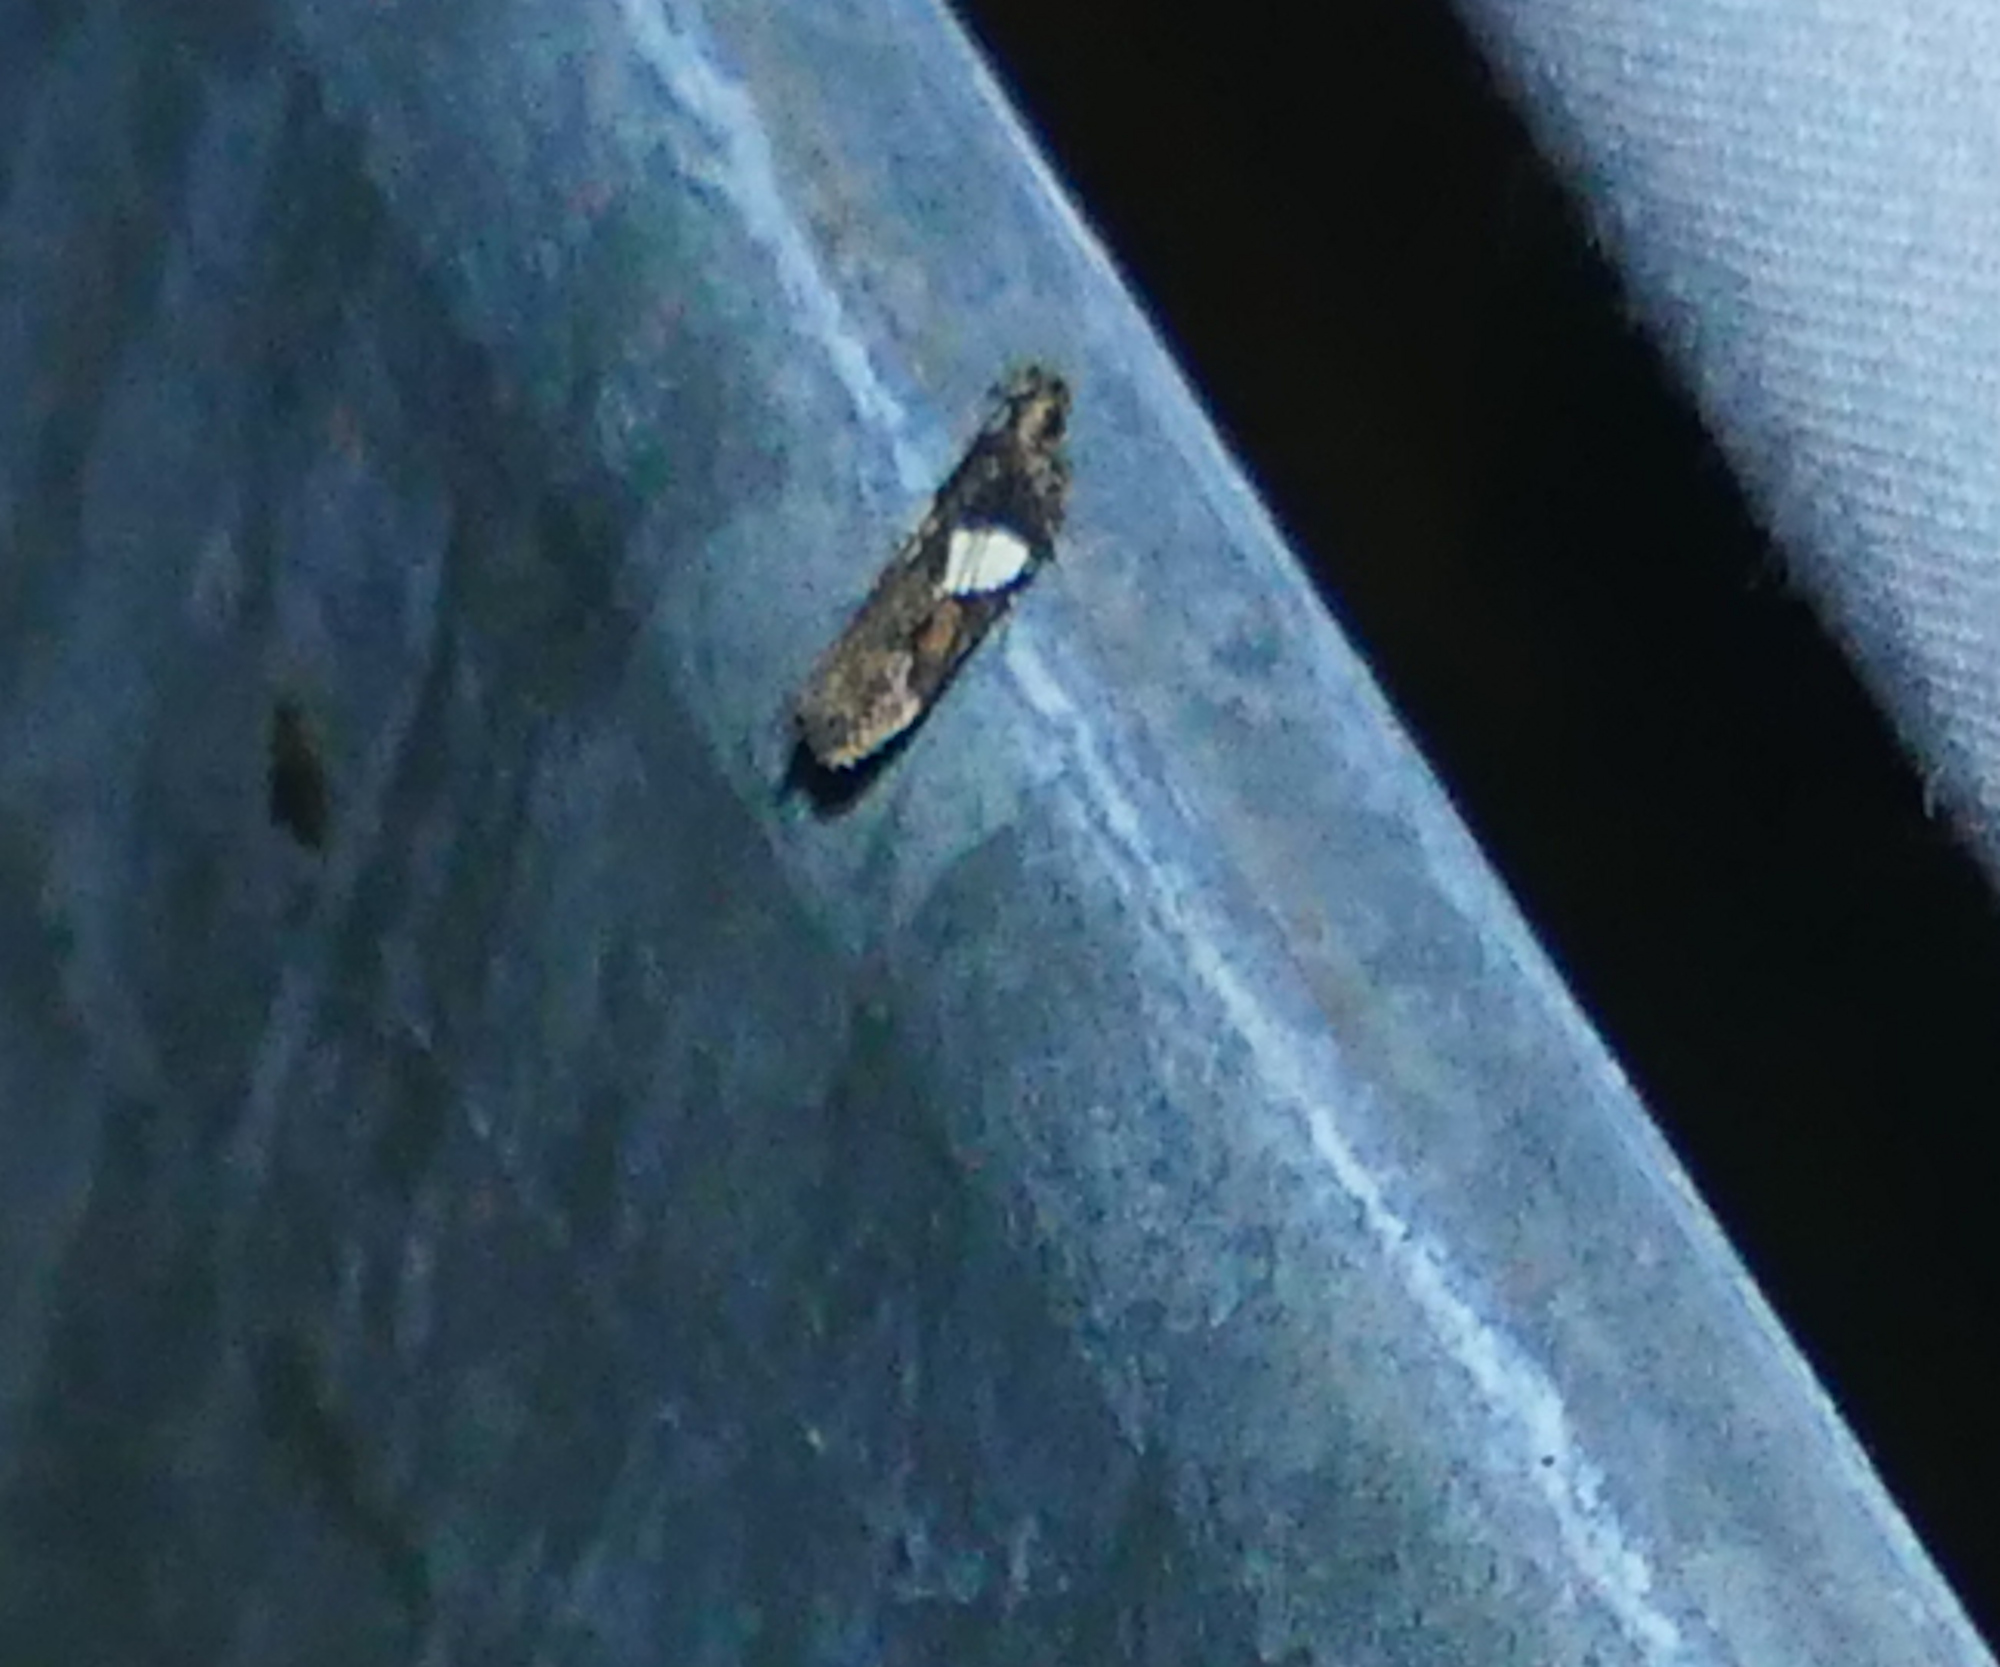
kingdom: Animalia
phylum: Arthropoda
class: Insecta
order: Lepidoptera
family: Gelechiidae
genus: Friseria
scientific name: Friseria acaciella
